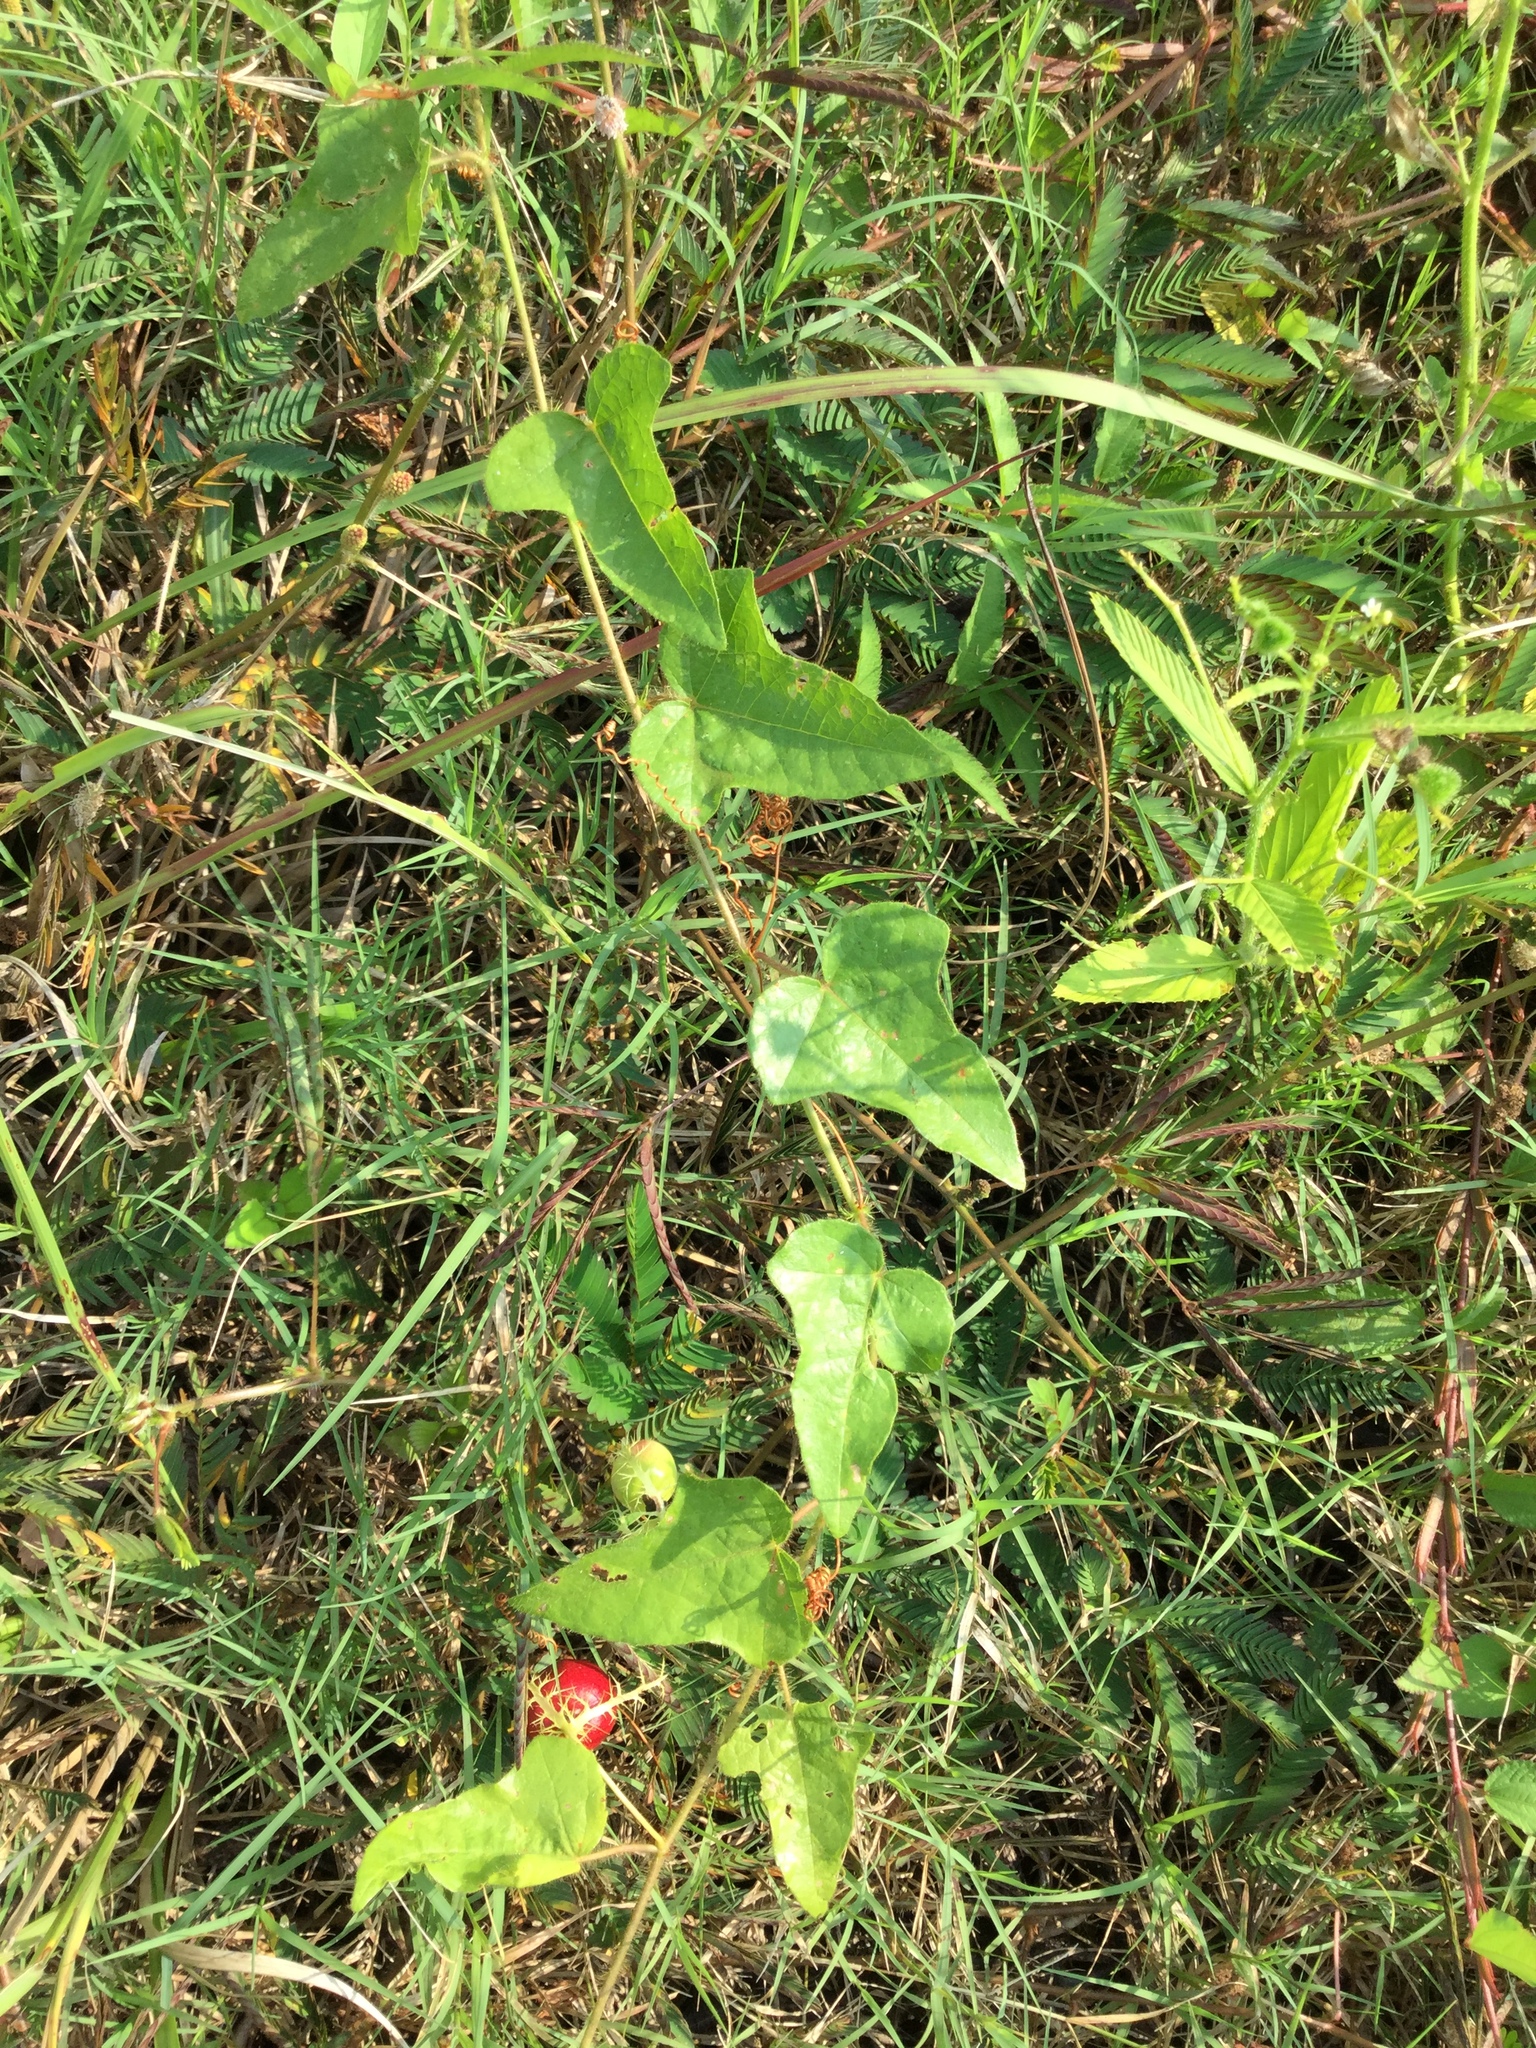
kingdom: Plantae
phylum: Tracheophyta
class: Magnoliopsida
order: Malpighiales
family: Passifloraceae
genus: Passiflora
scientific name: Passiflora foetida
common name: Fetid passionflower
